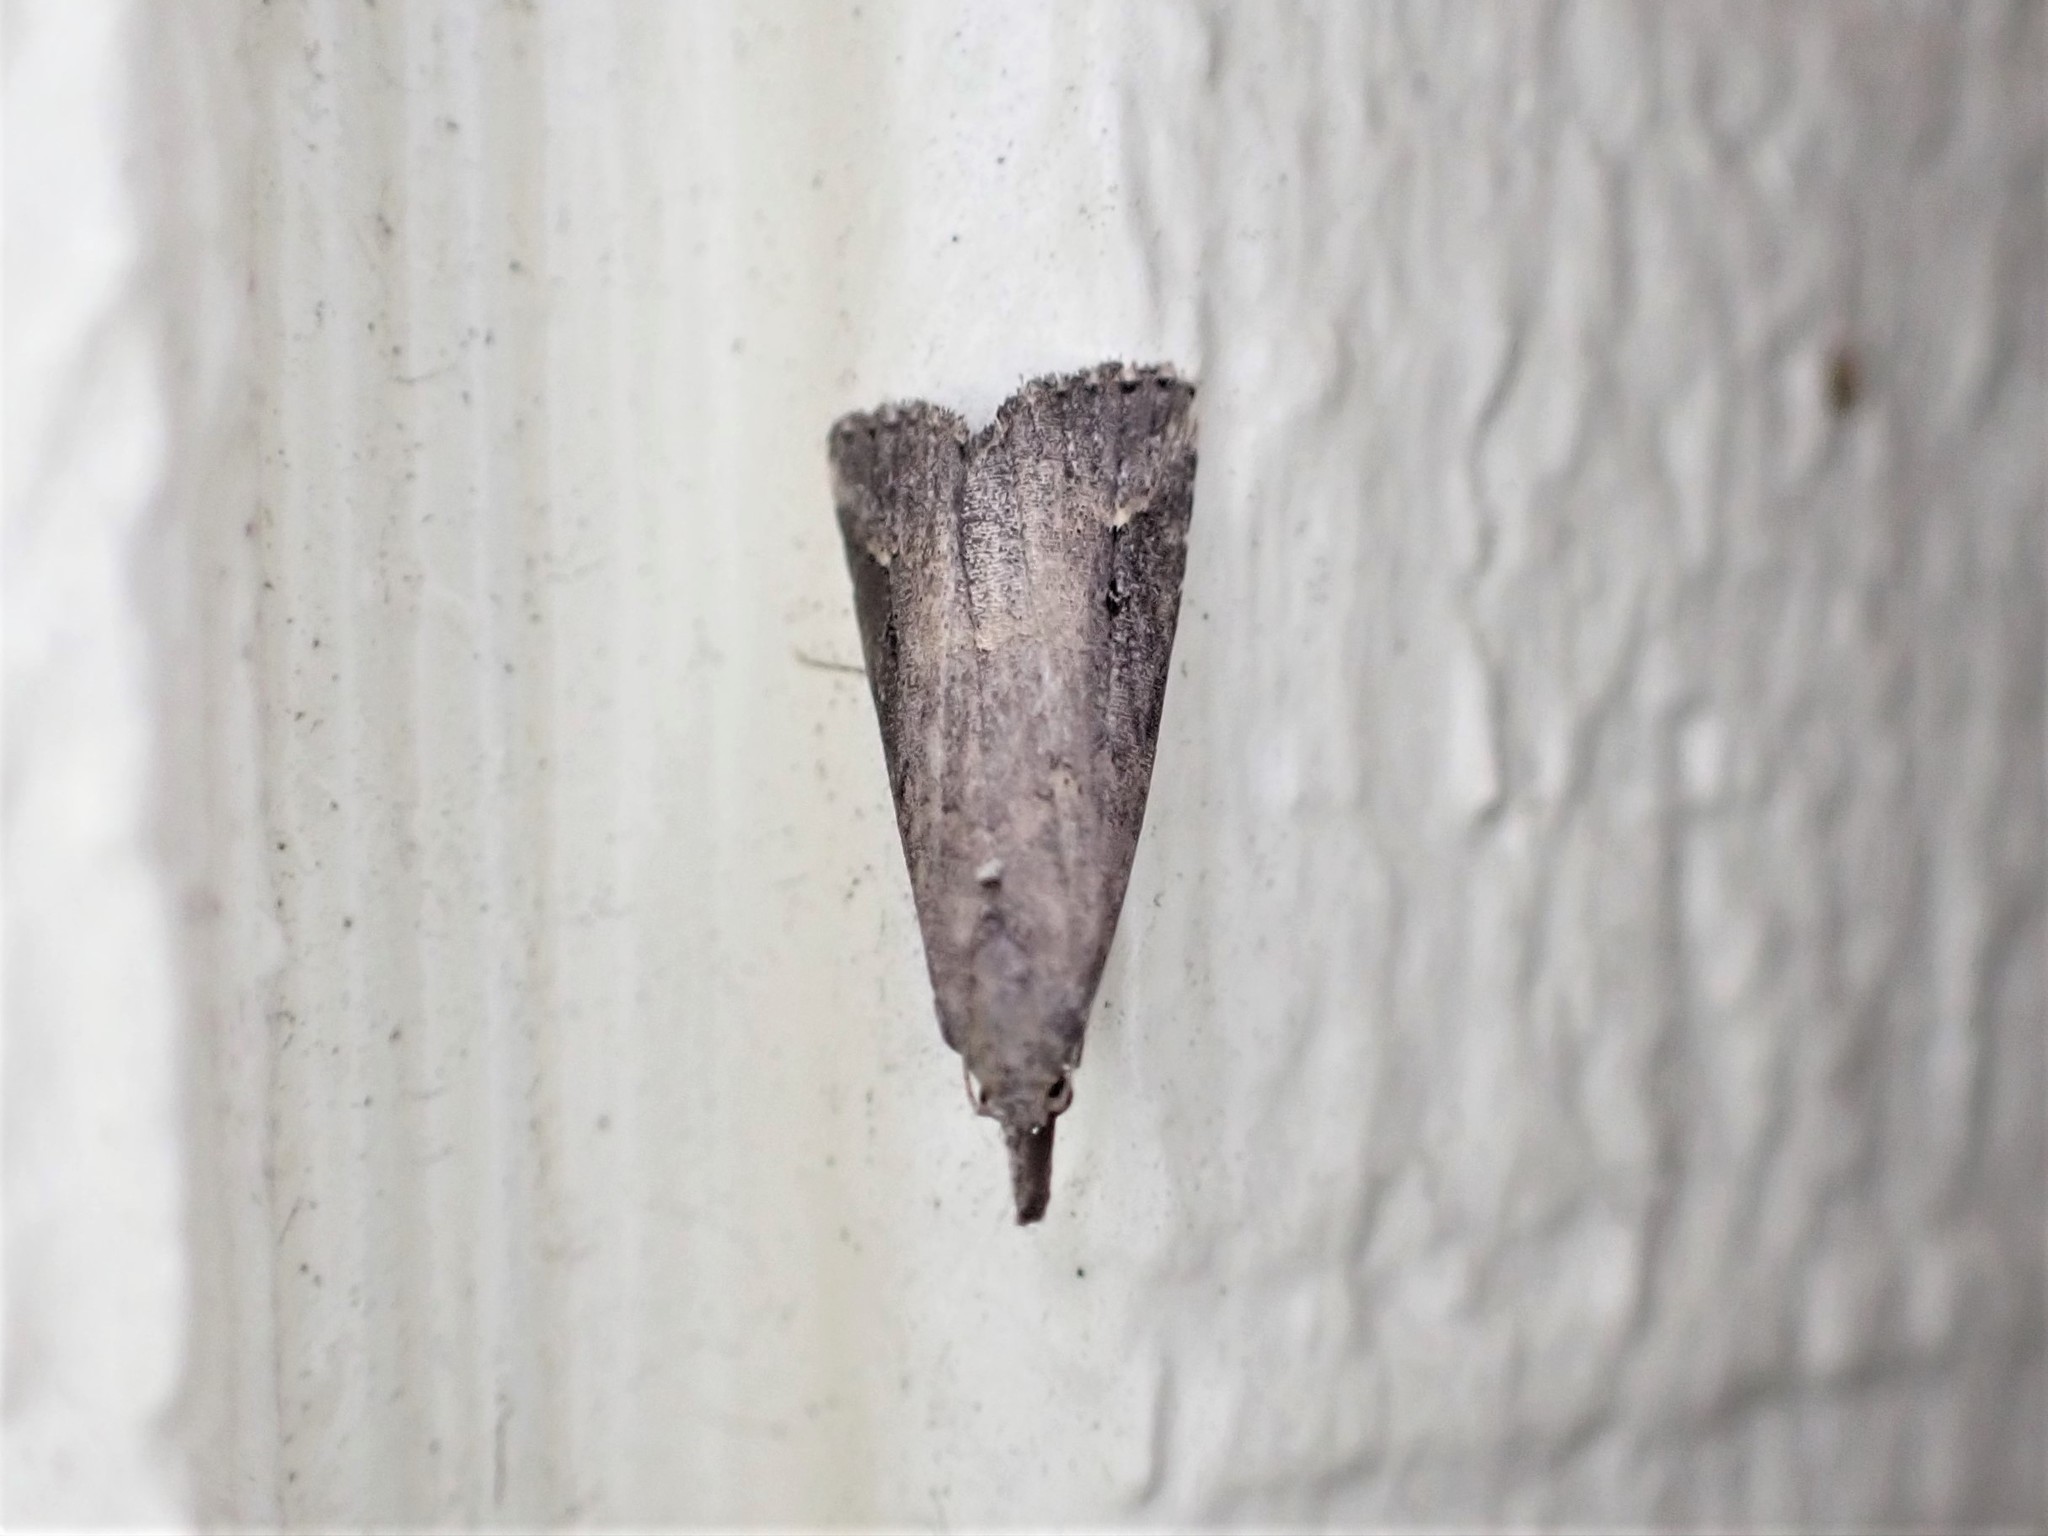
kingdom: Animalia
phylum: Arthropoda
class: Insecta
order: Lepidoptera
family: Erebidae
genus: Schrankia
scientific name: Schrankia costaestrigalis
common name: Pinion-streaked snout
